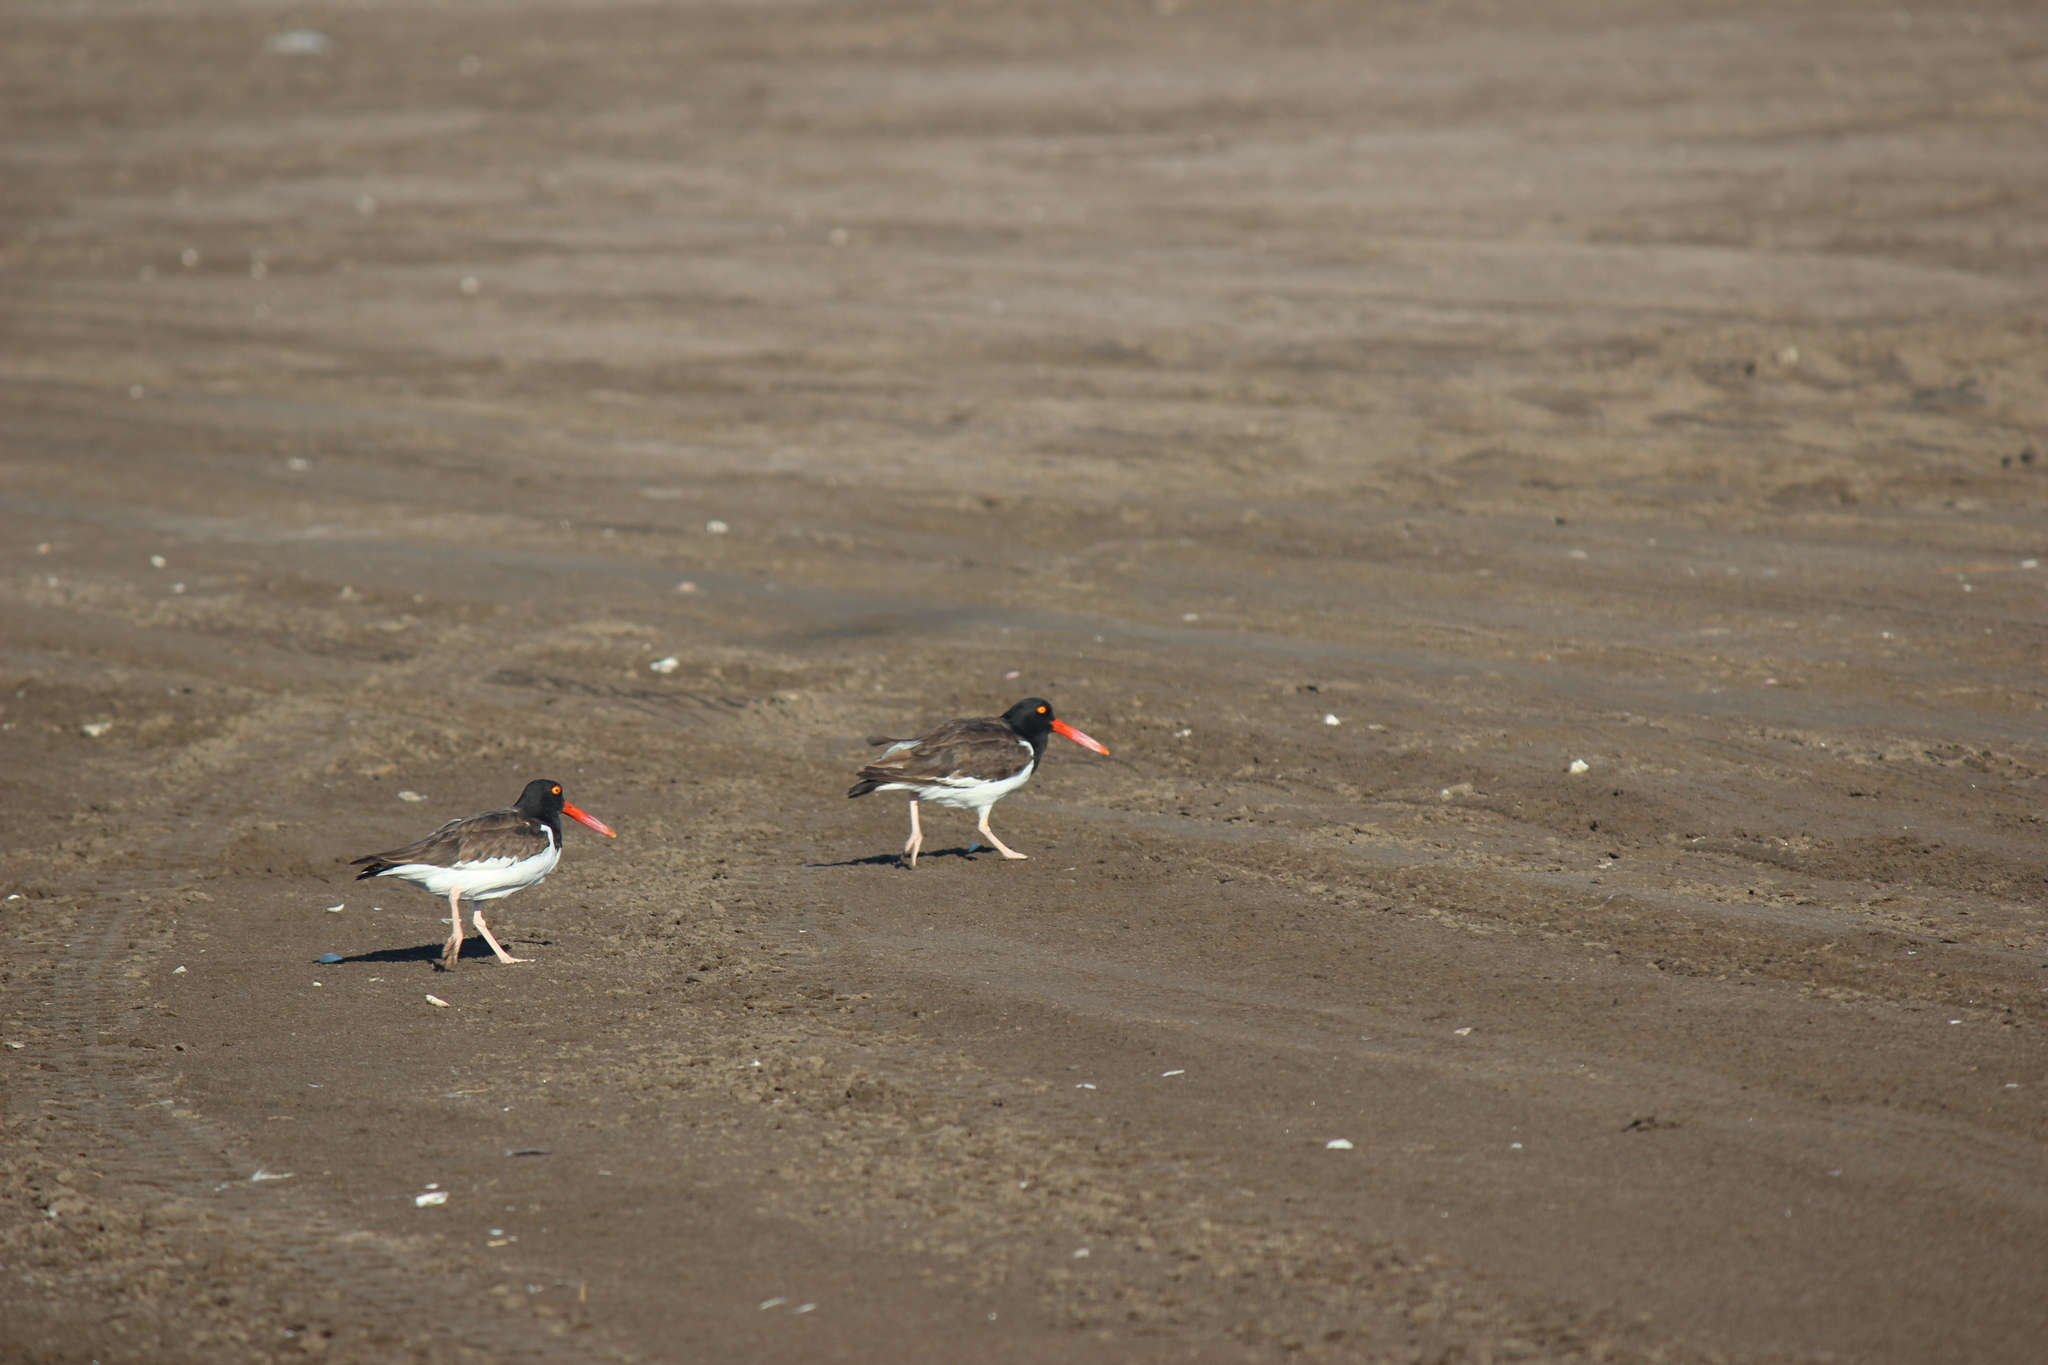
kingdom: Animalia
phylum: Chordata
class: Aves
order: Charadriiformes
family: Haematopodidae
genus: Haematopus
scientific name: Haematopus palliatus
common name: American oystercatcher
